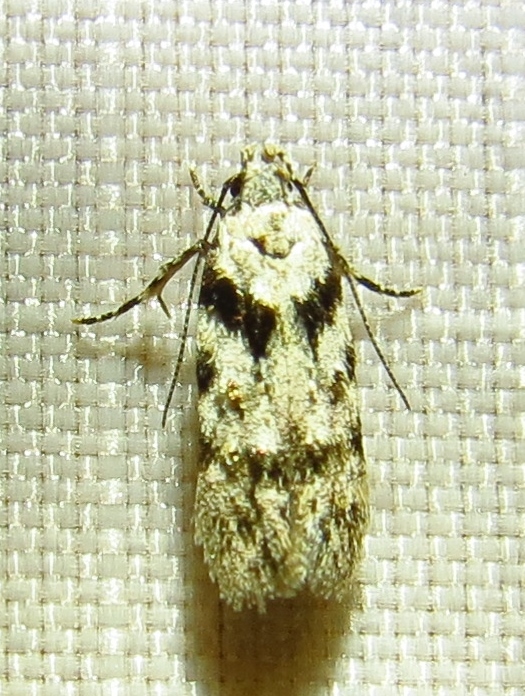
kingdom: Animalia
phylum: Arthropoda
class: Insecta
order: Lepidoptera
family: Gelechiidae
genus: Pseudotelphusa
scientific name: Pseudotelphusa palliderosacella
